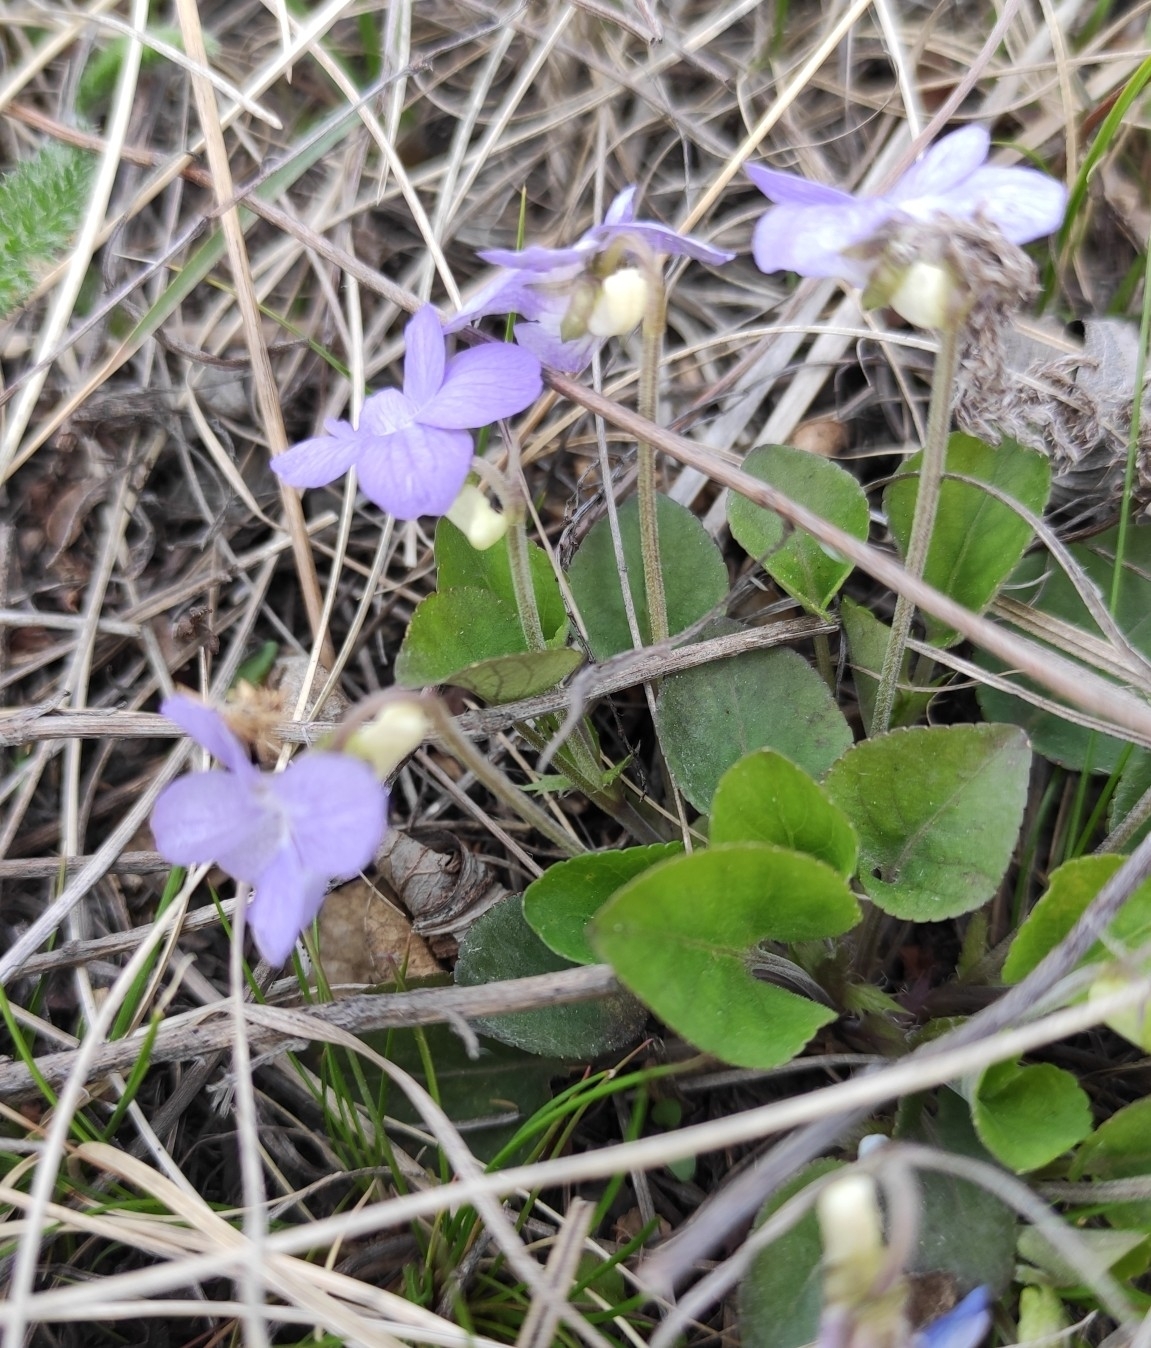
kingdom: Plantae
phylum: Tracheophyta
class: Magnoliopsida
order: Malpighiales
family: Violaceae
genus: Viola
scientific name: Viola rupestris
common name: Teesdale violet
